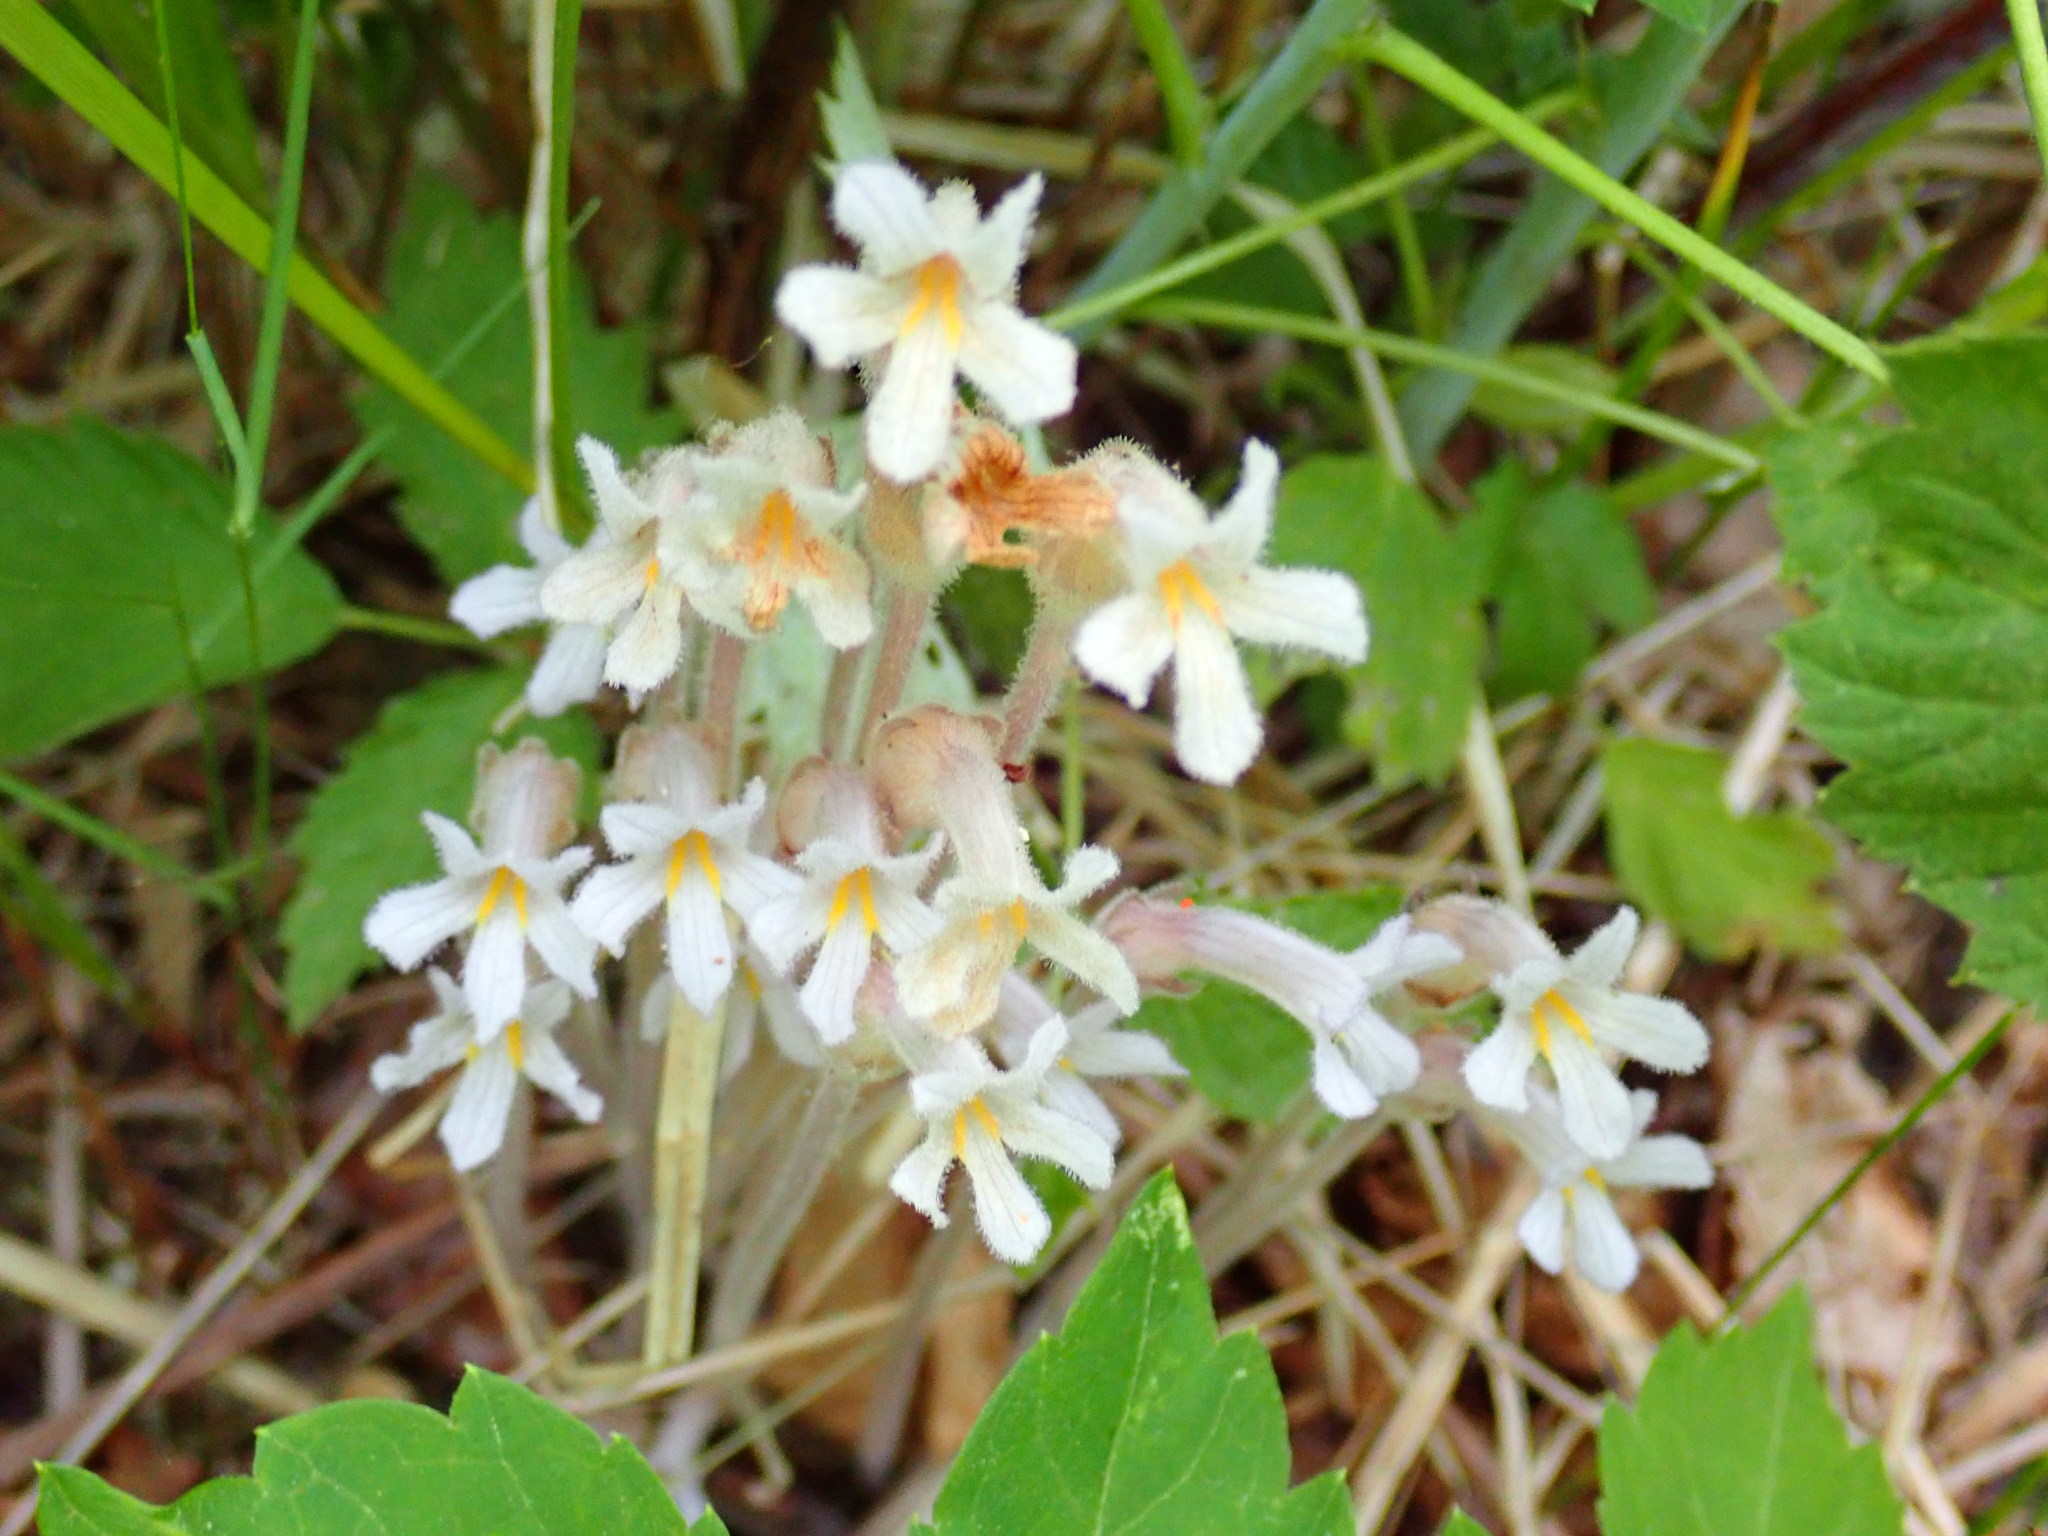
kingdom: Plantae
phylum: Tracheophyta
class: Magnoliopsida
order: Lamiales
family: Orobanchaceae
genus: Aphyllon
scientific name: Aphyllon uniflorum
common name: One-flowered broomrape
